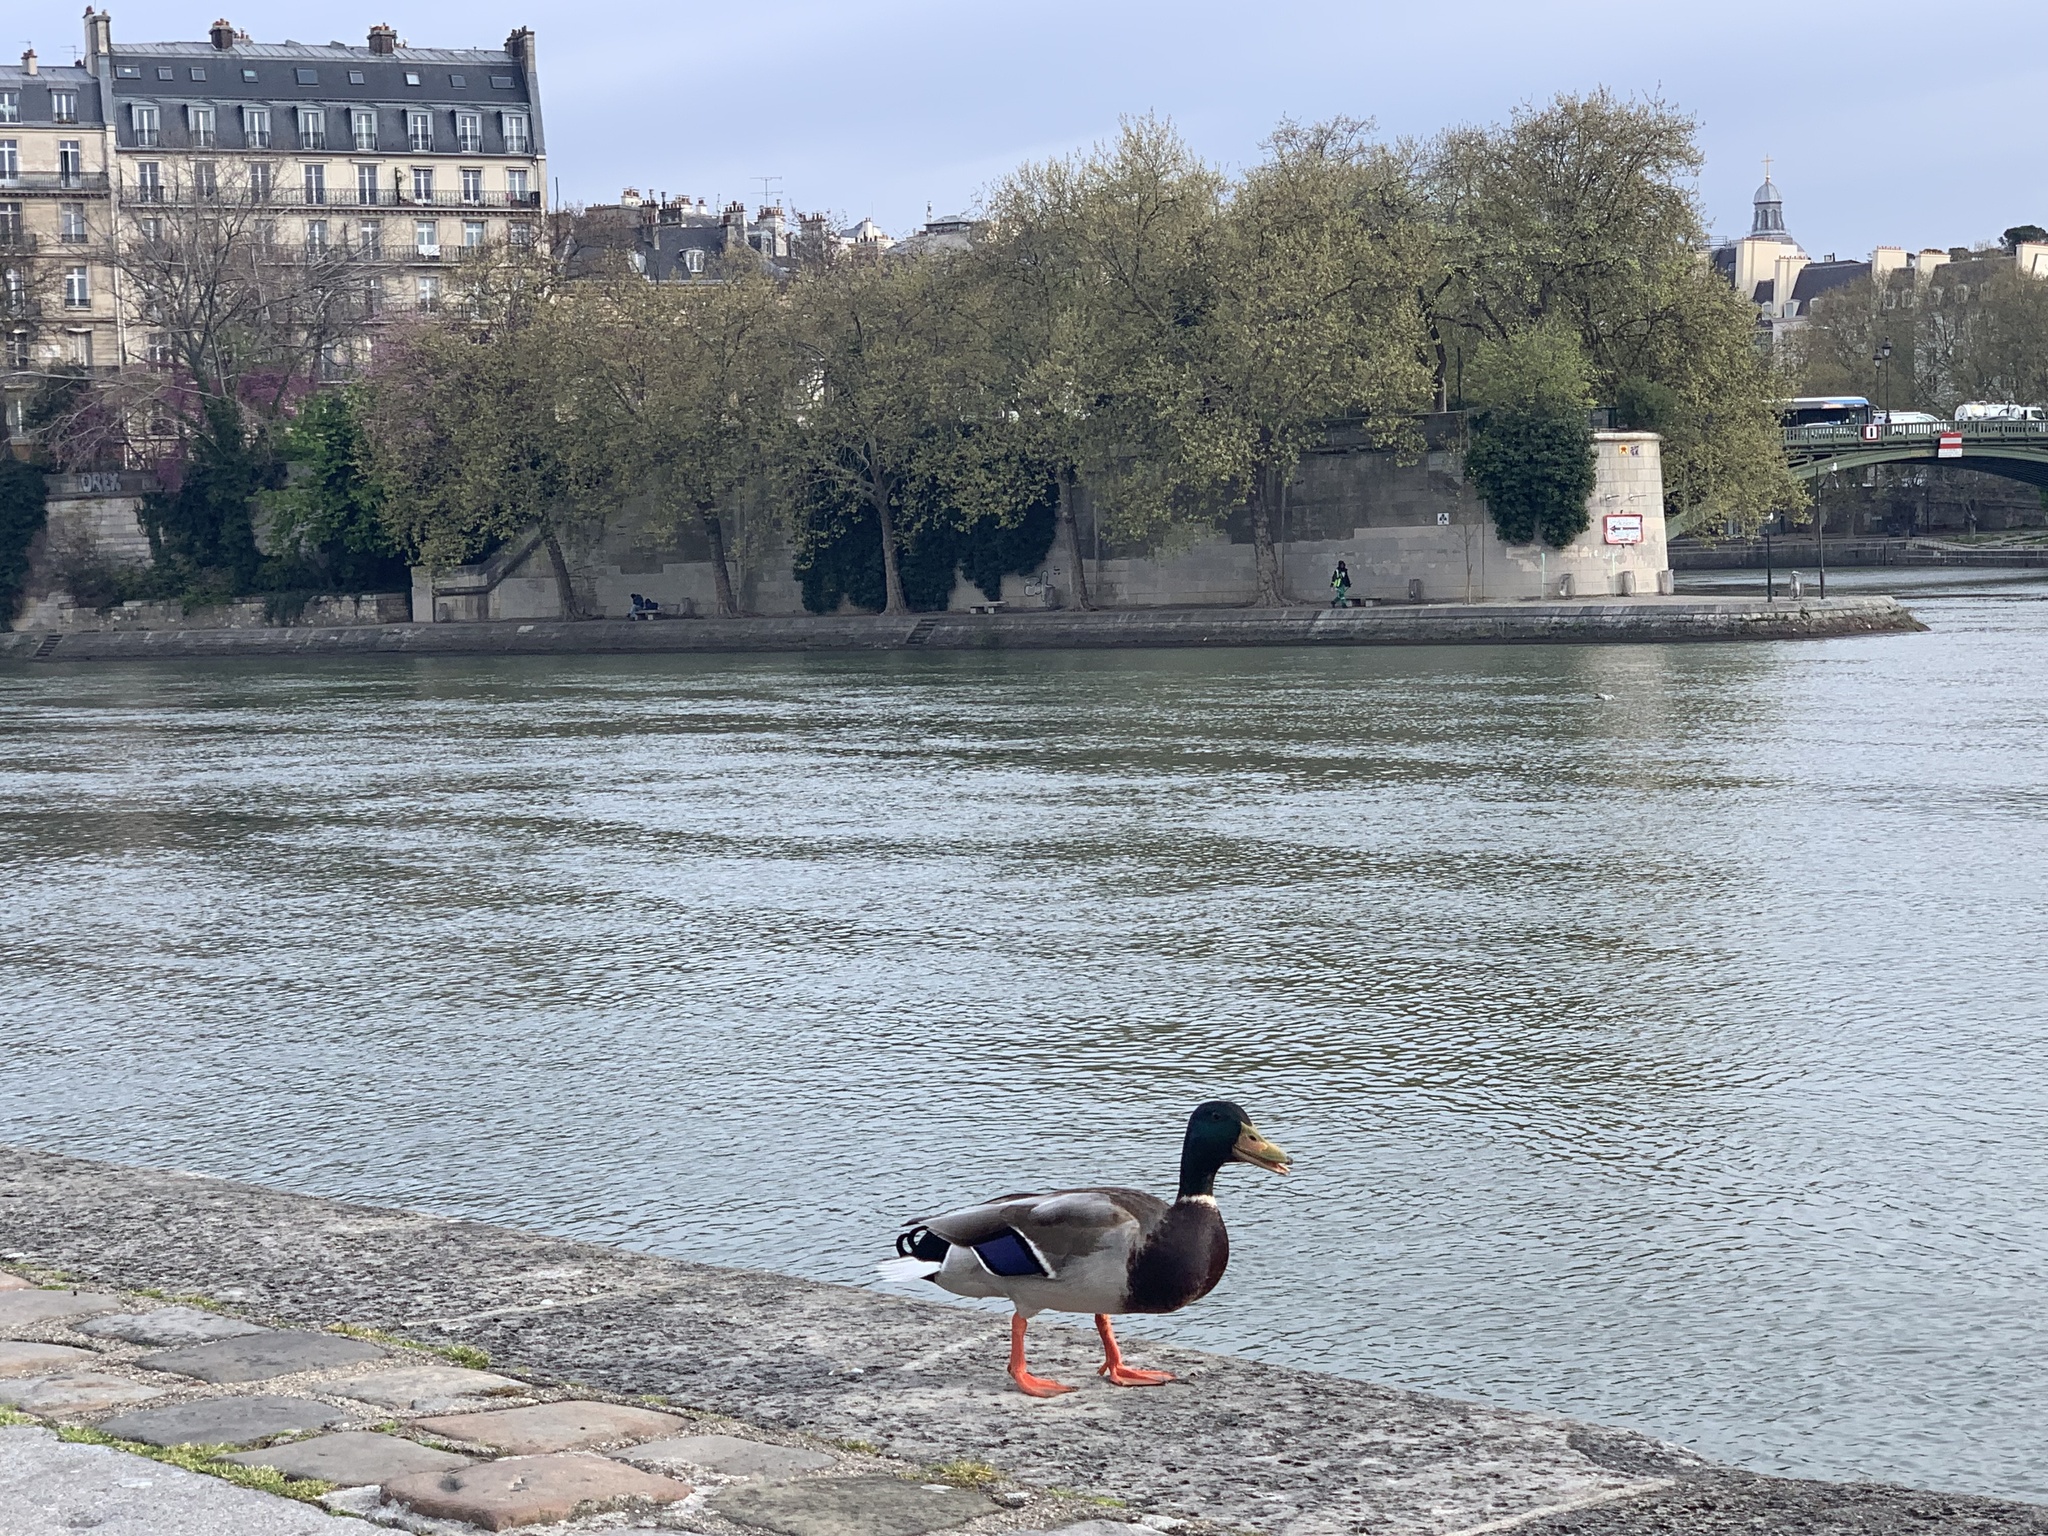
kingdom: Animalia
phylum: Chordata
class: Aves
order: Anseriformes
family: Anatidae
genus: Anas
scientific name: Anas platyrhynchos
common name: Mallard
